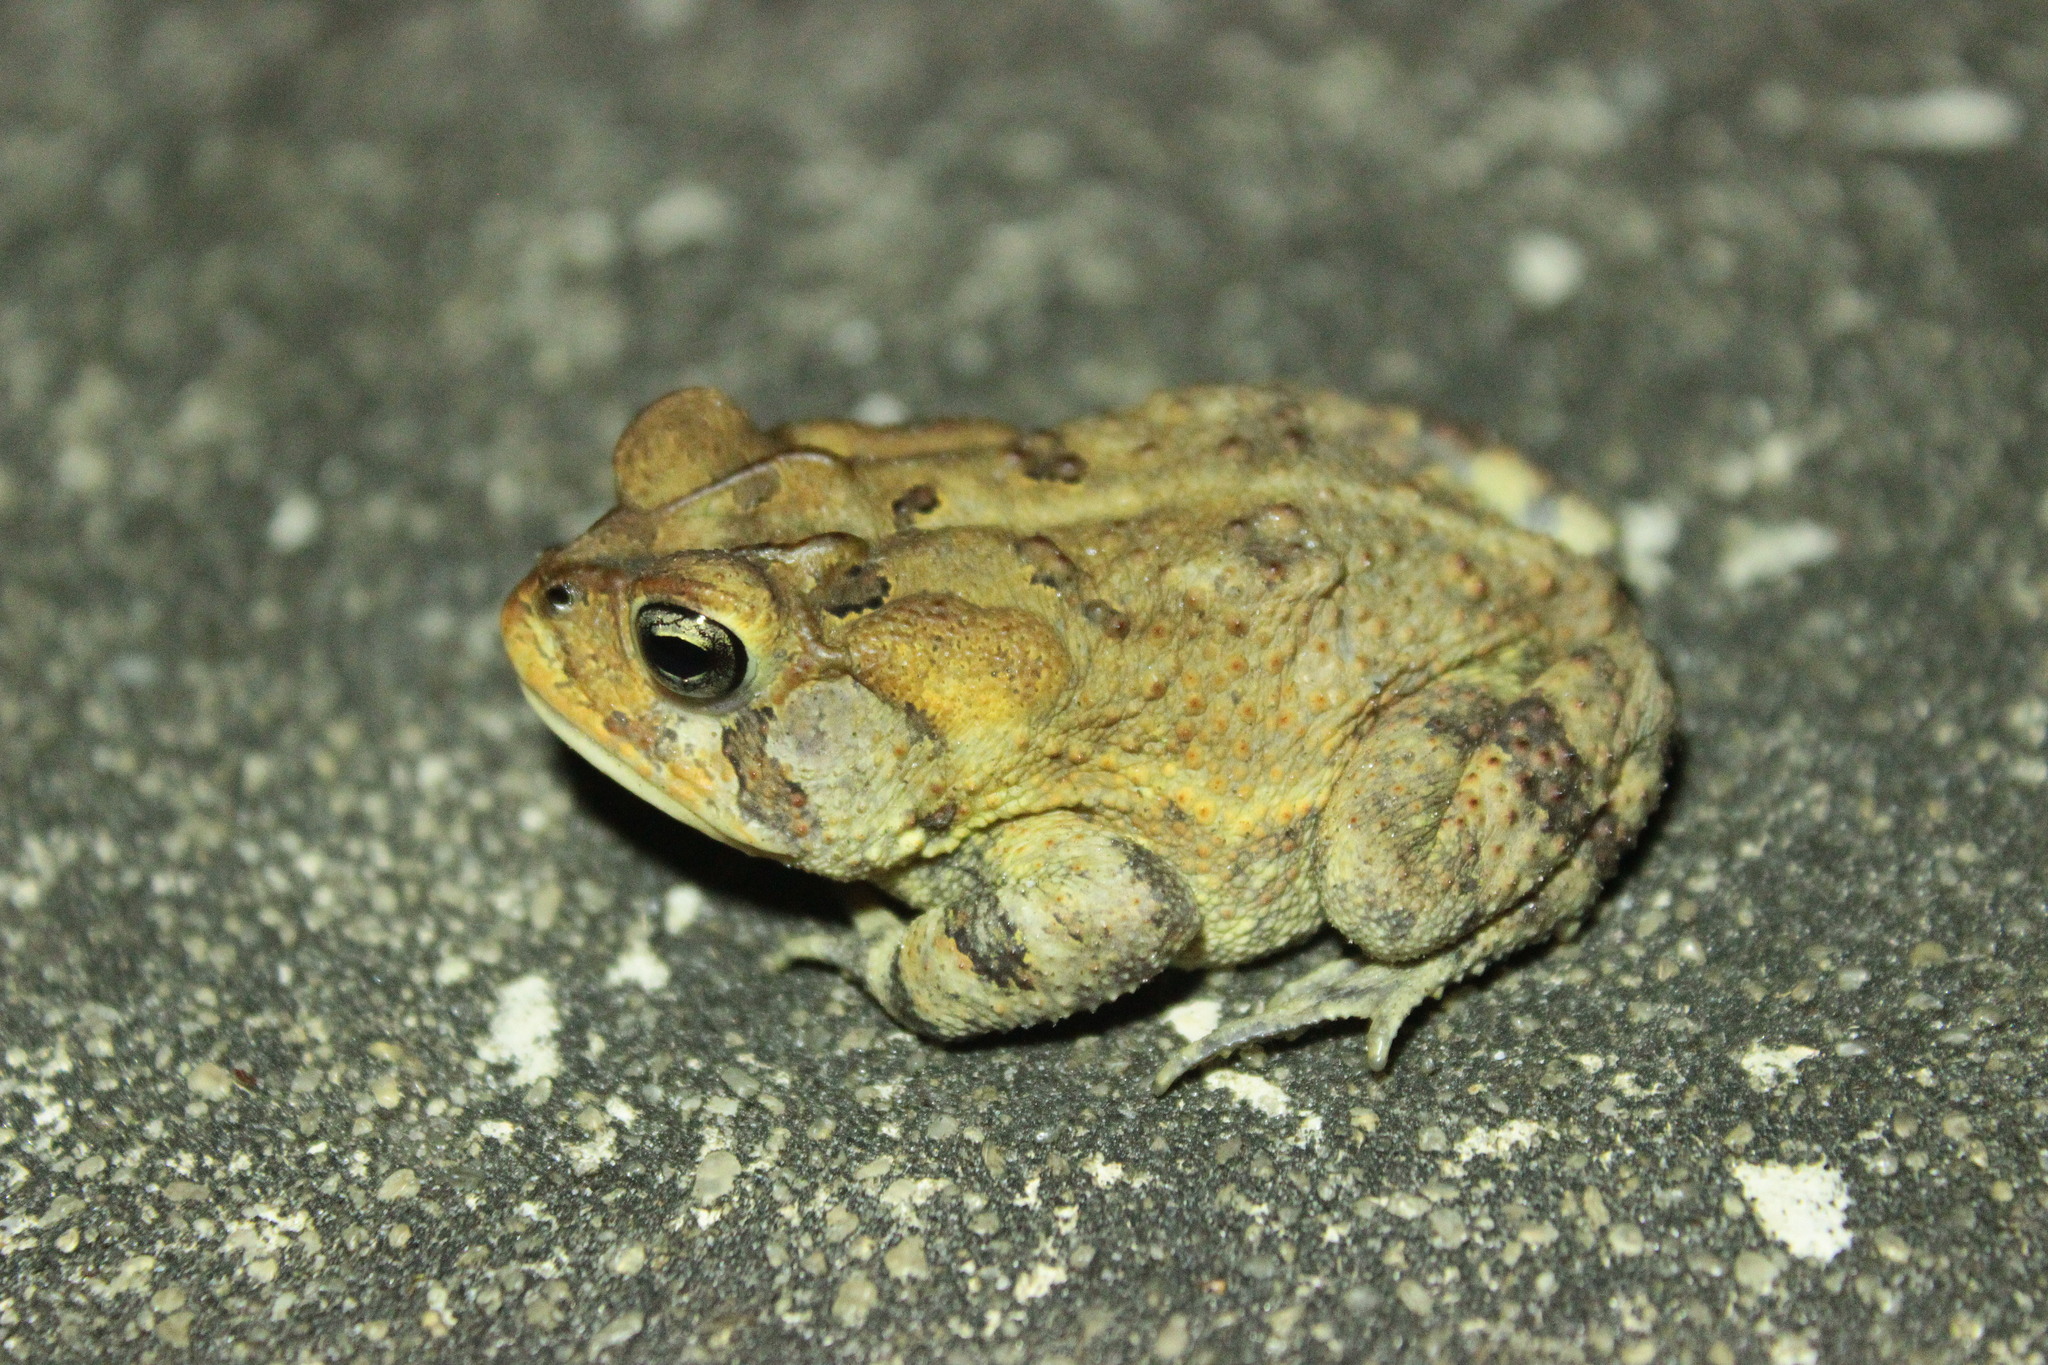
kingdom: Animalia
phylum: Chordata
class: Amphibia
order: Anura
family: Bufonidae
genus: Anaxyrus
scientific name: Anaxyrus terrestris
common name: Southern toad
